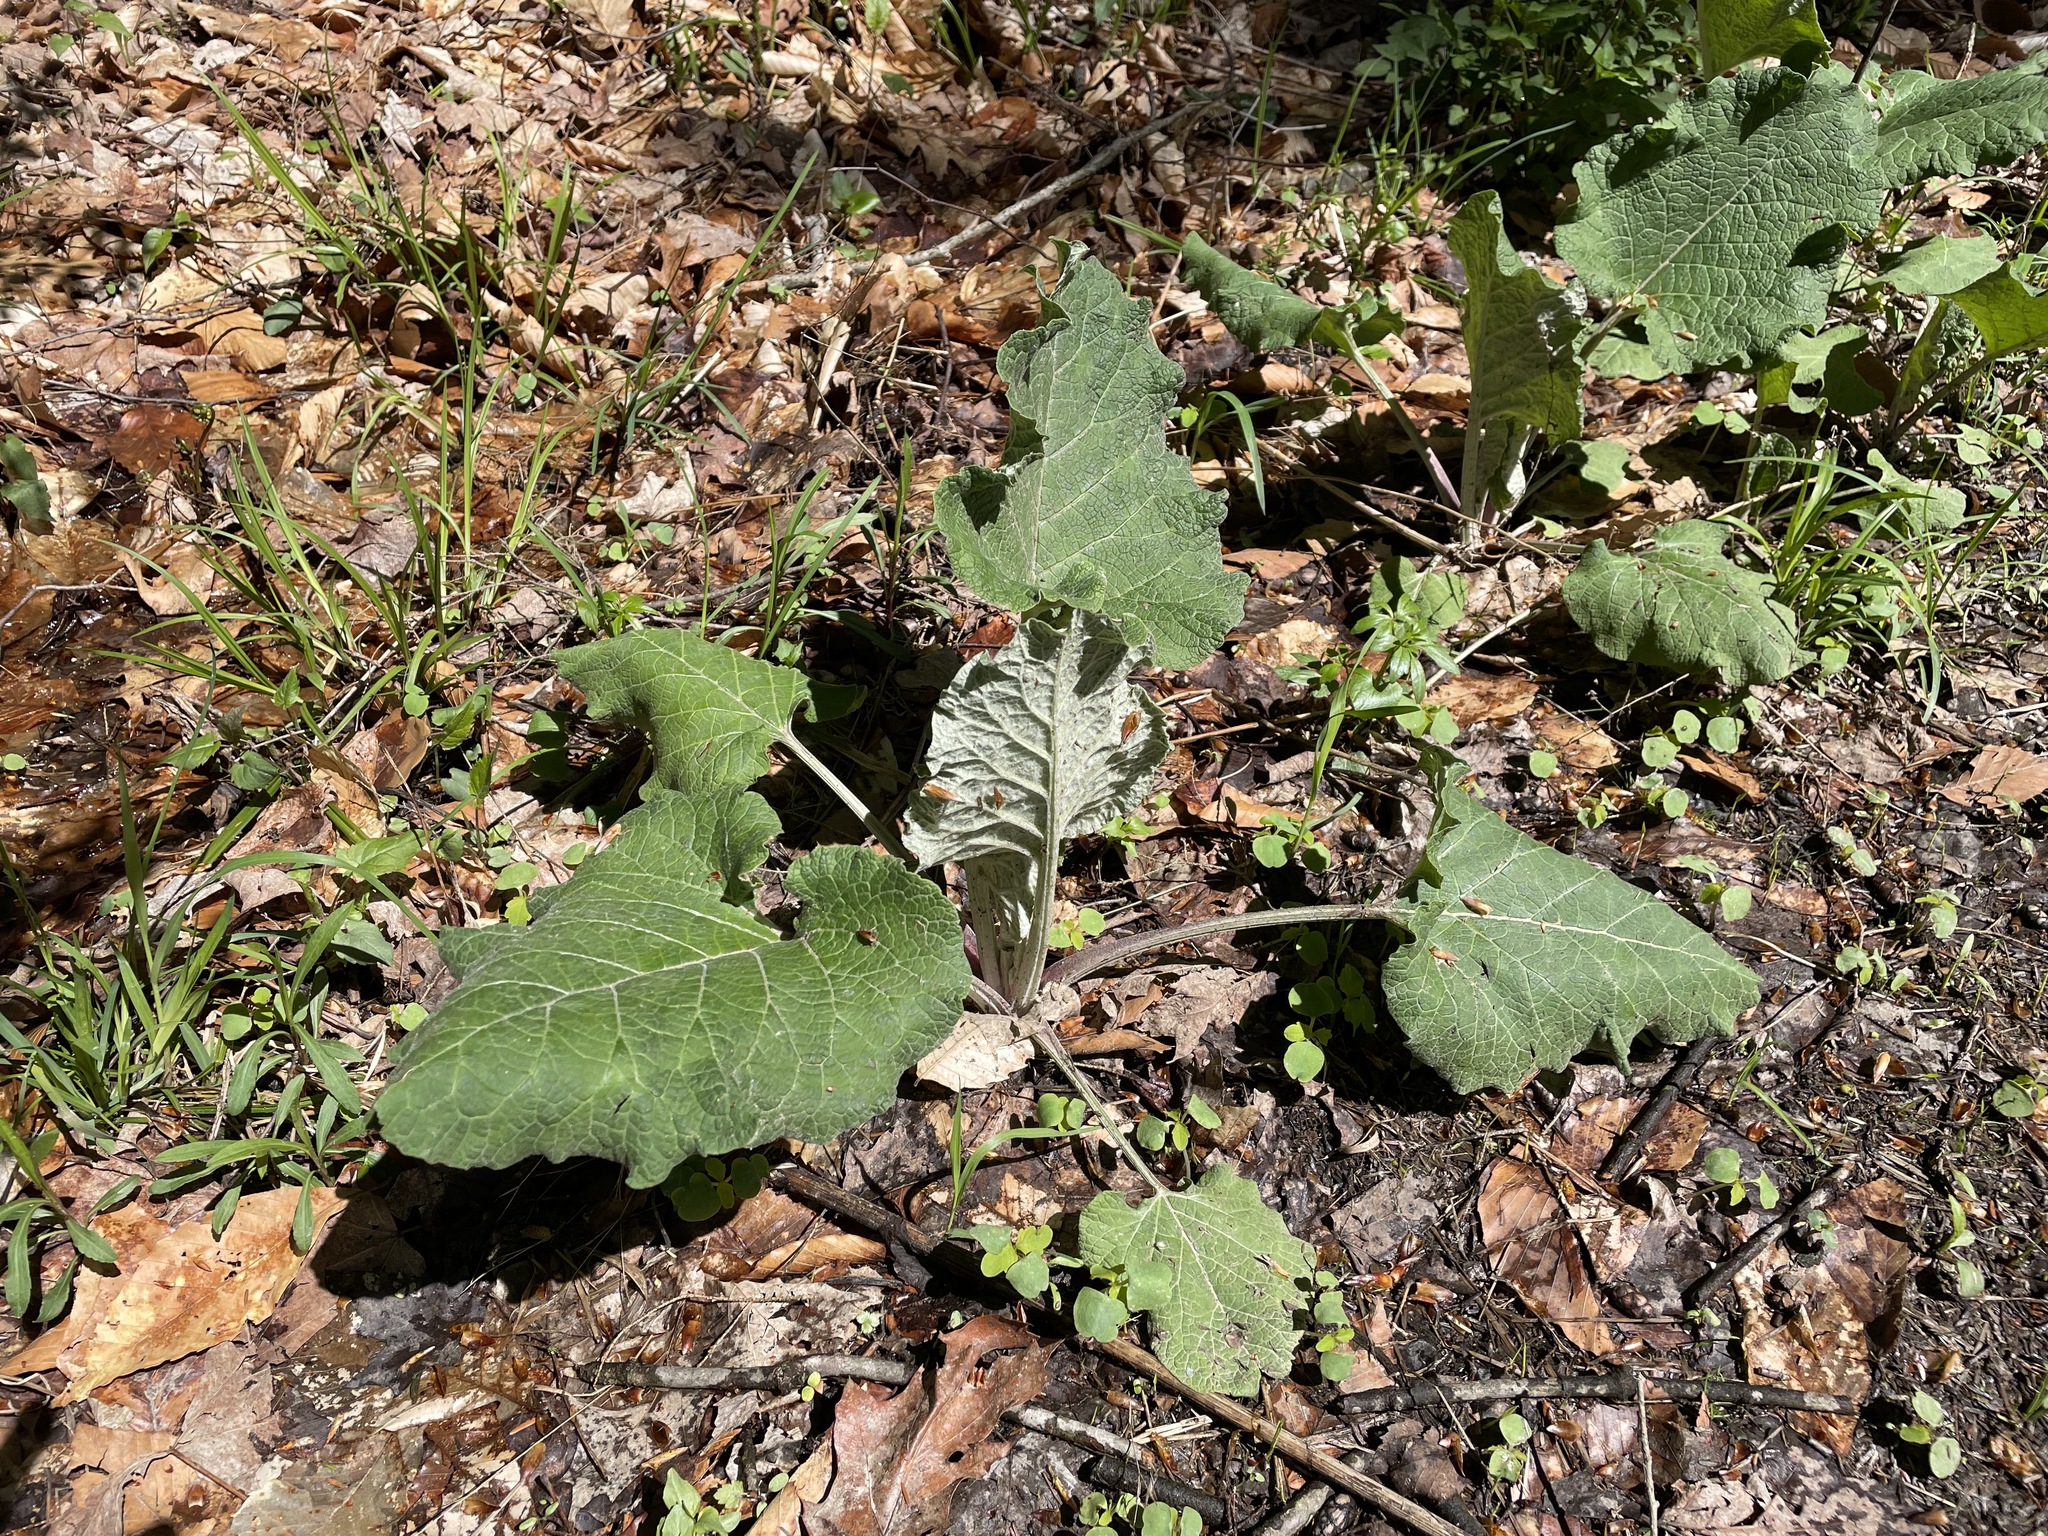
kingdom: Plantae
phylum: Tracheophyta
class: Magnoliopsida
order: Asterales
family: Asteraceae
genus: Arctium
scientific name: Arctium
